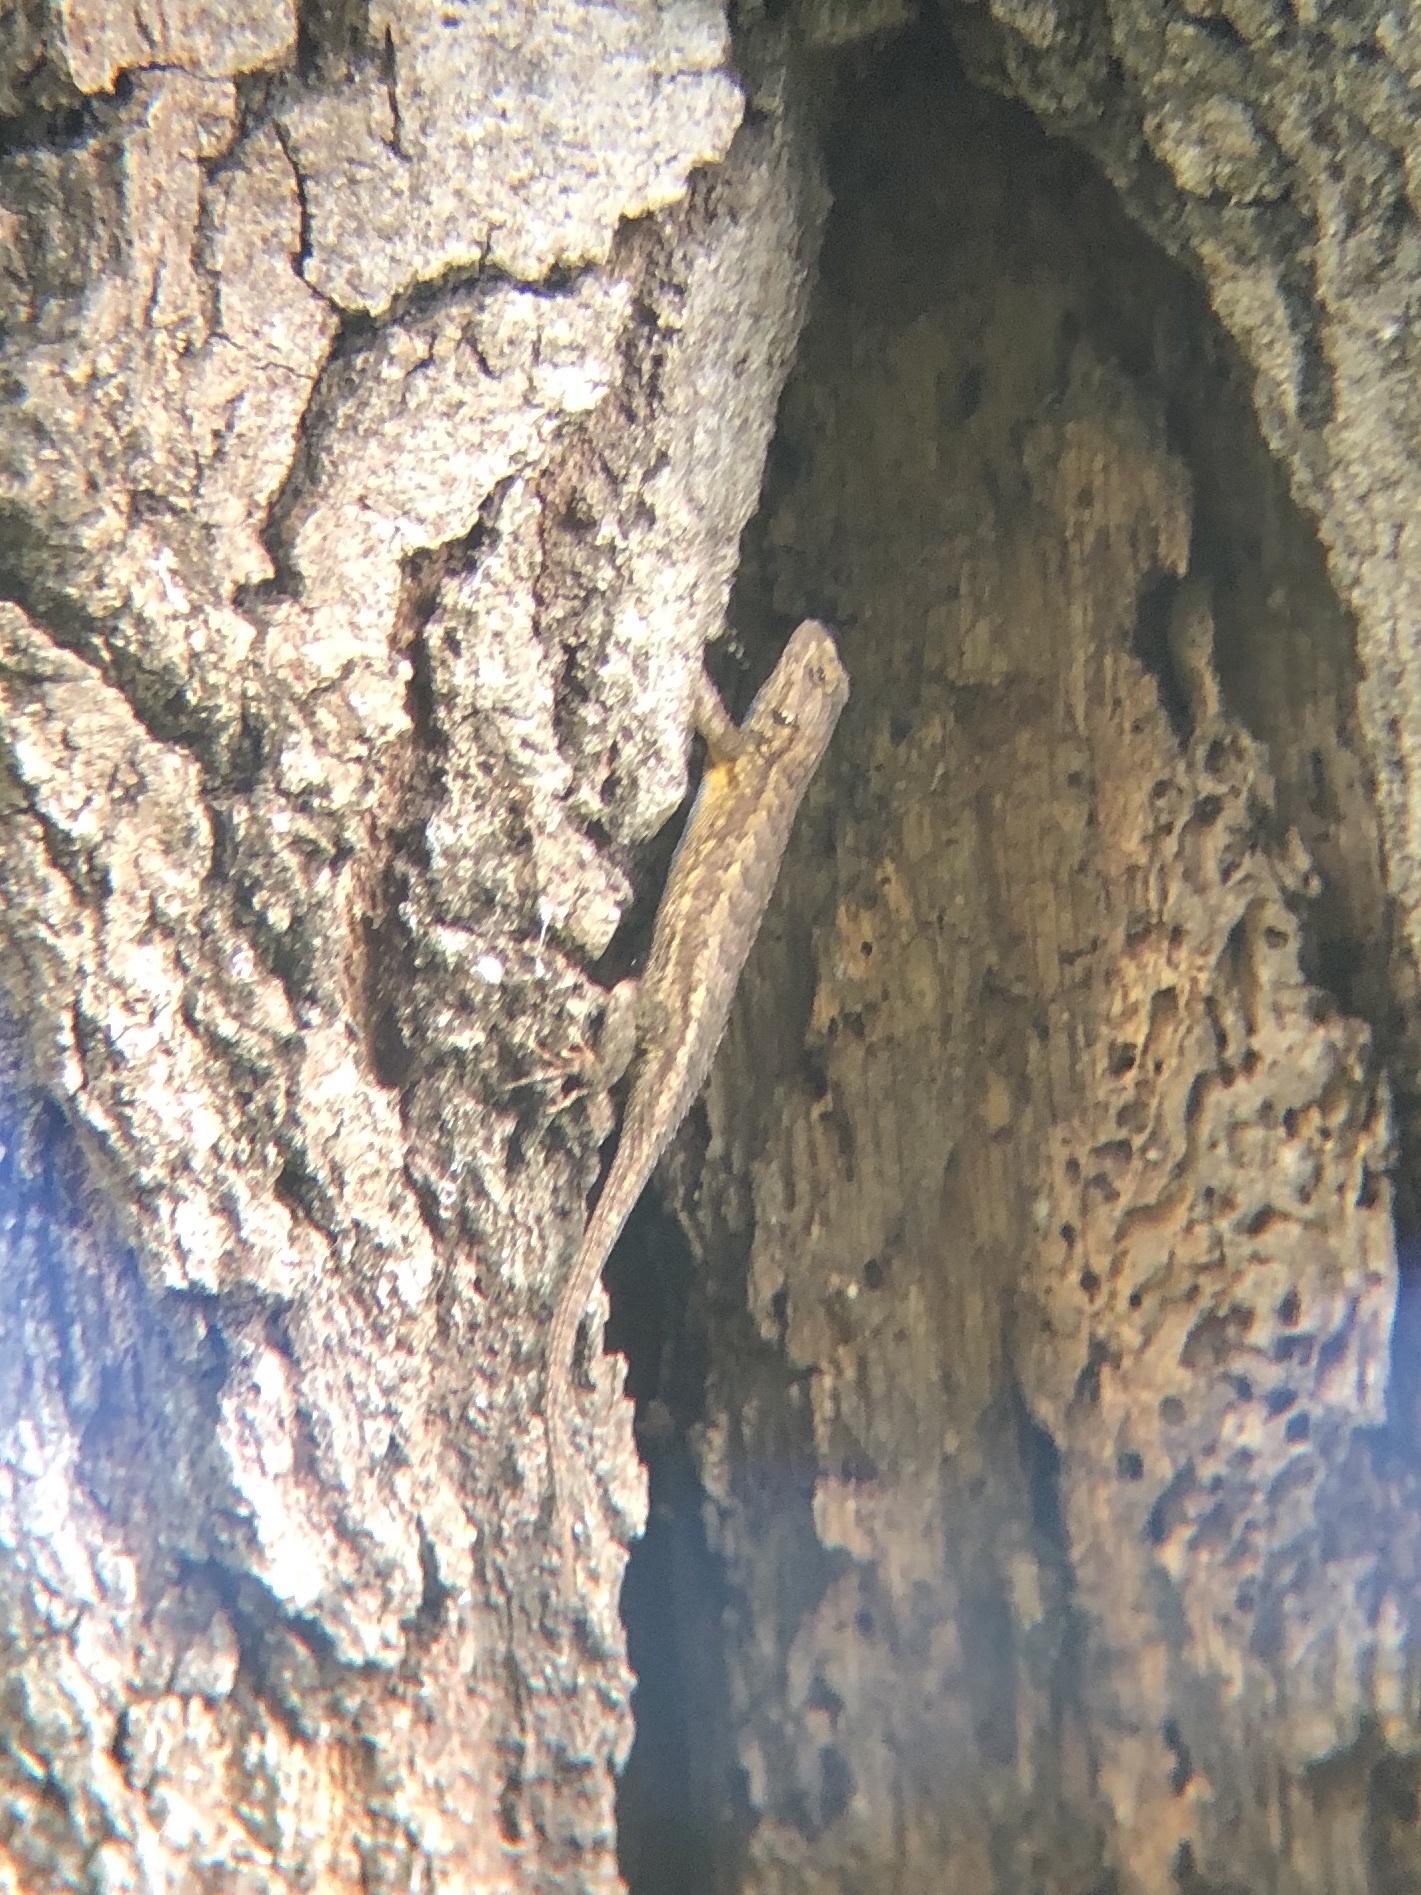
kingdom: Animalia
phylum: Chordata
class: Squamata
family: Phrynosomatidae
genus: Sceloporus
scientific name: Sceloporus occidentalis
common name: Western fence lizard
